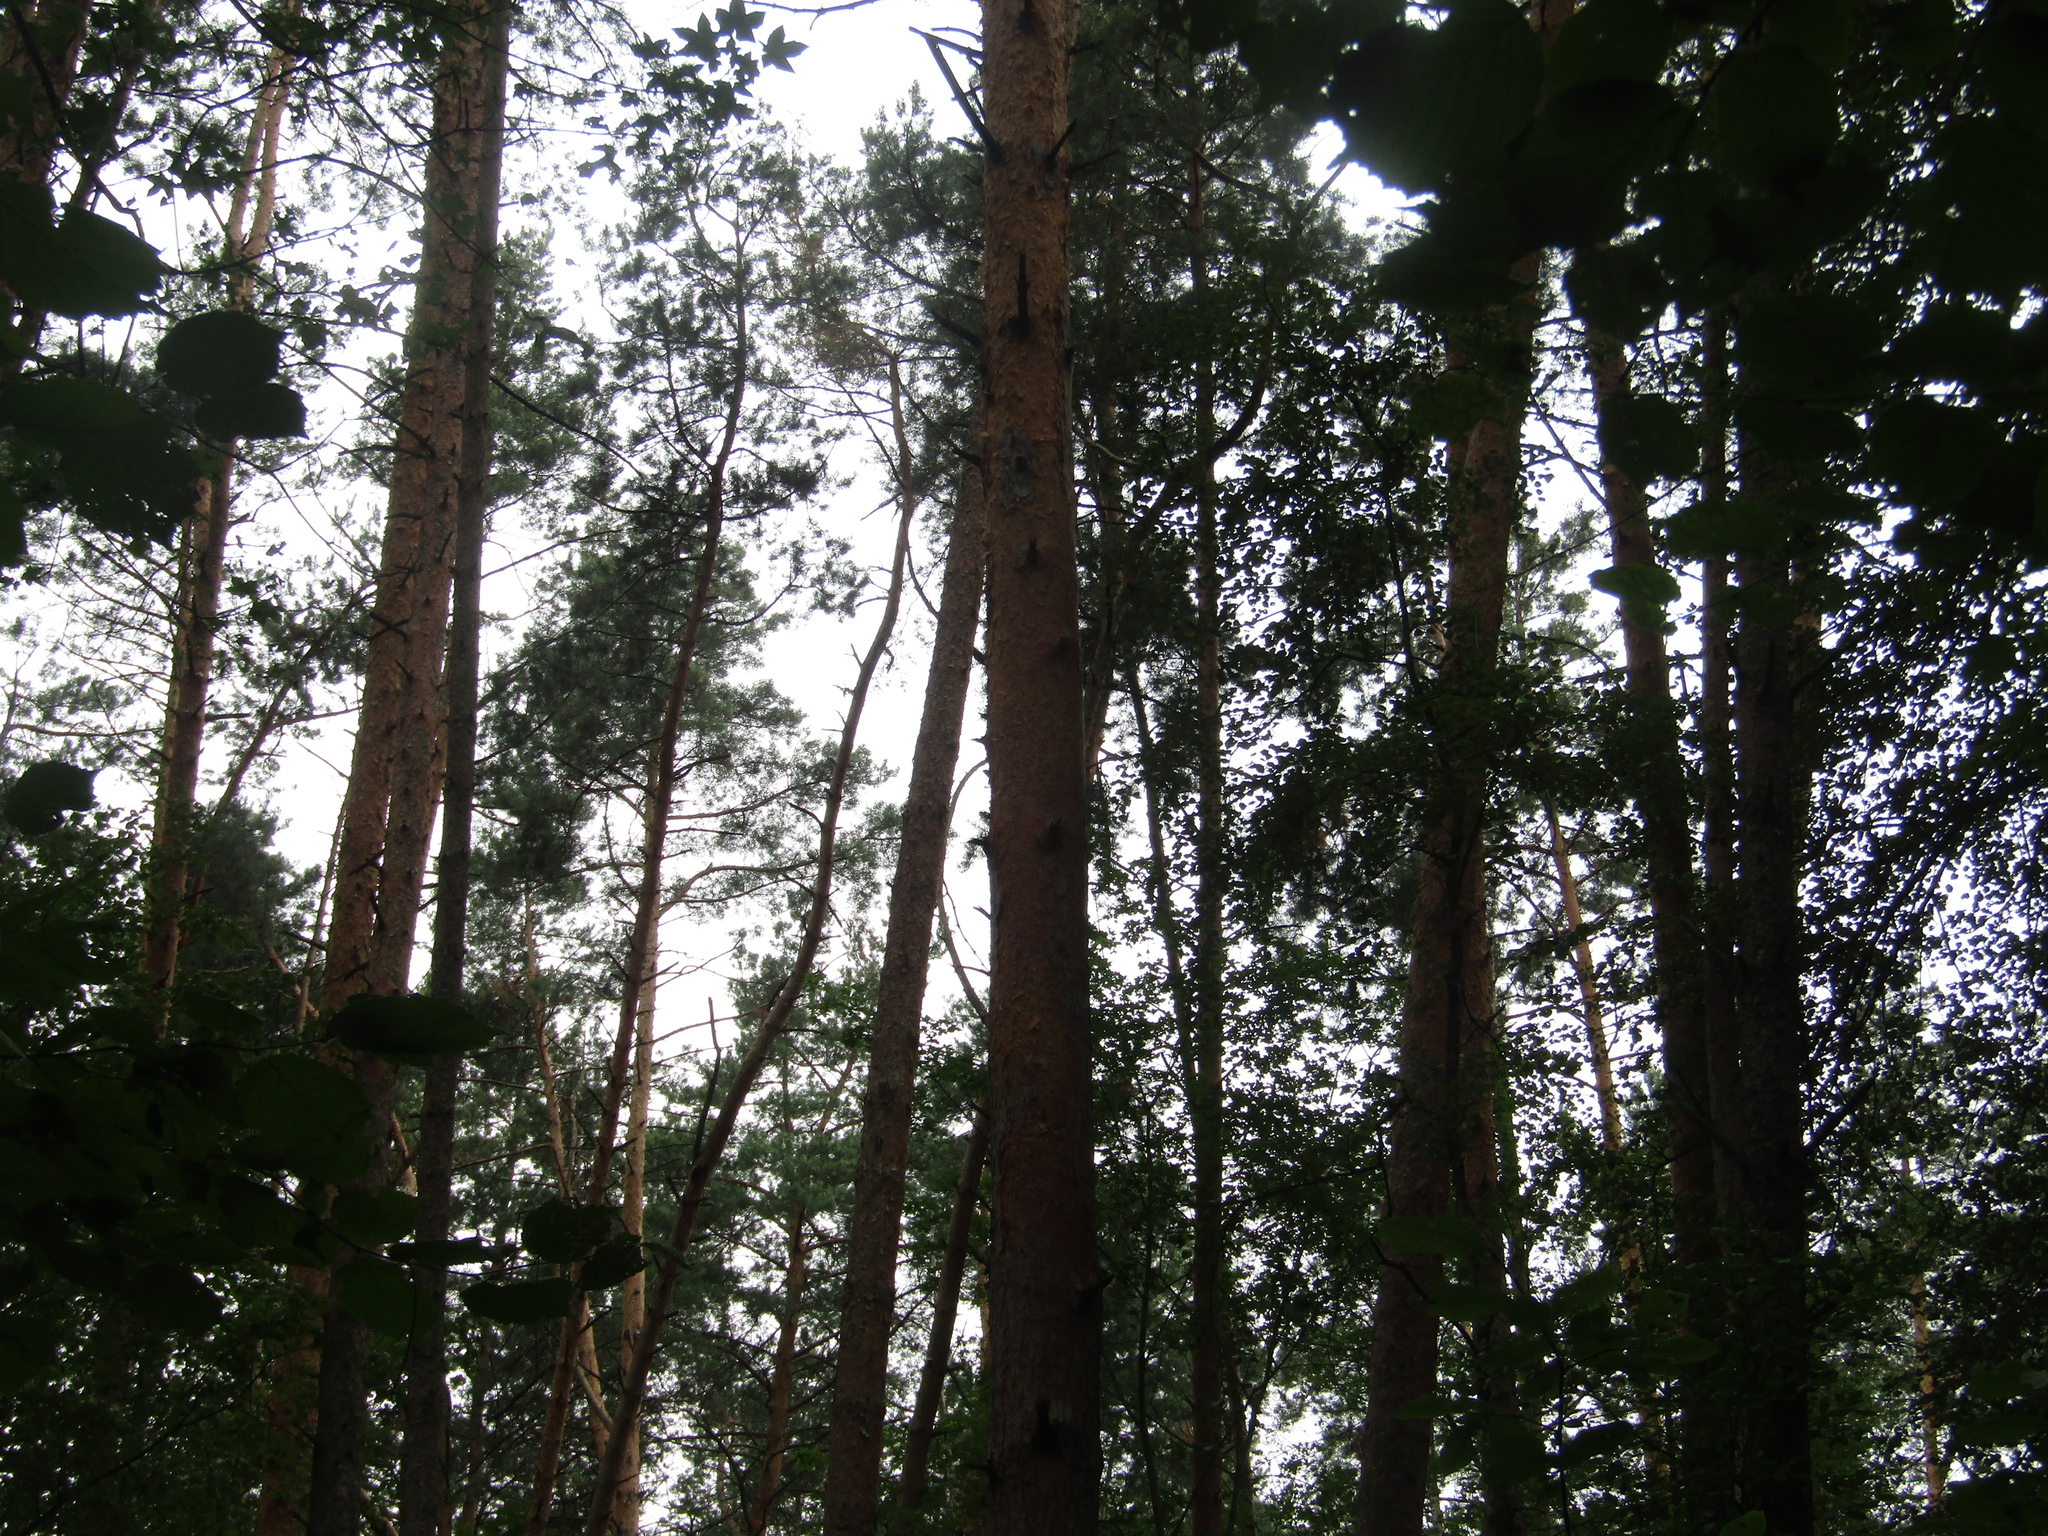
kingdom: Plantae
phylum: Tracheophyta
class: Pinopsida
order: Pinales
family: Pinaceae
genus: Pinus
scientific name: Pinus sylvestris
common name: Scots pine
